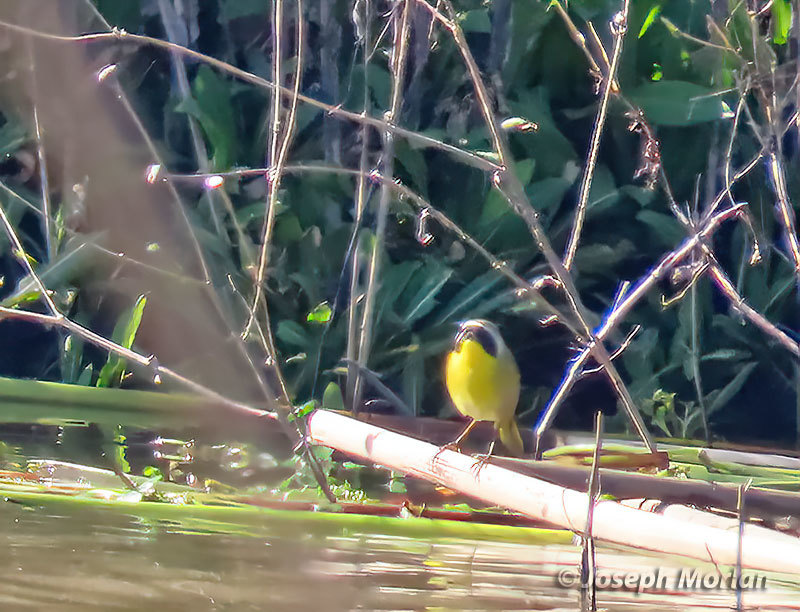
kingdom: Animalia
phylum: Chordata
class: Aves
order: Passeriformes
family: Parulidae
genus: Geothlypis
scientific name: Geothlypis trichas
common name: Common yellowthroat
